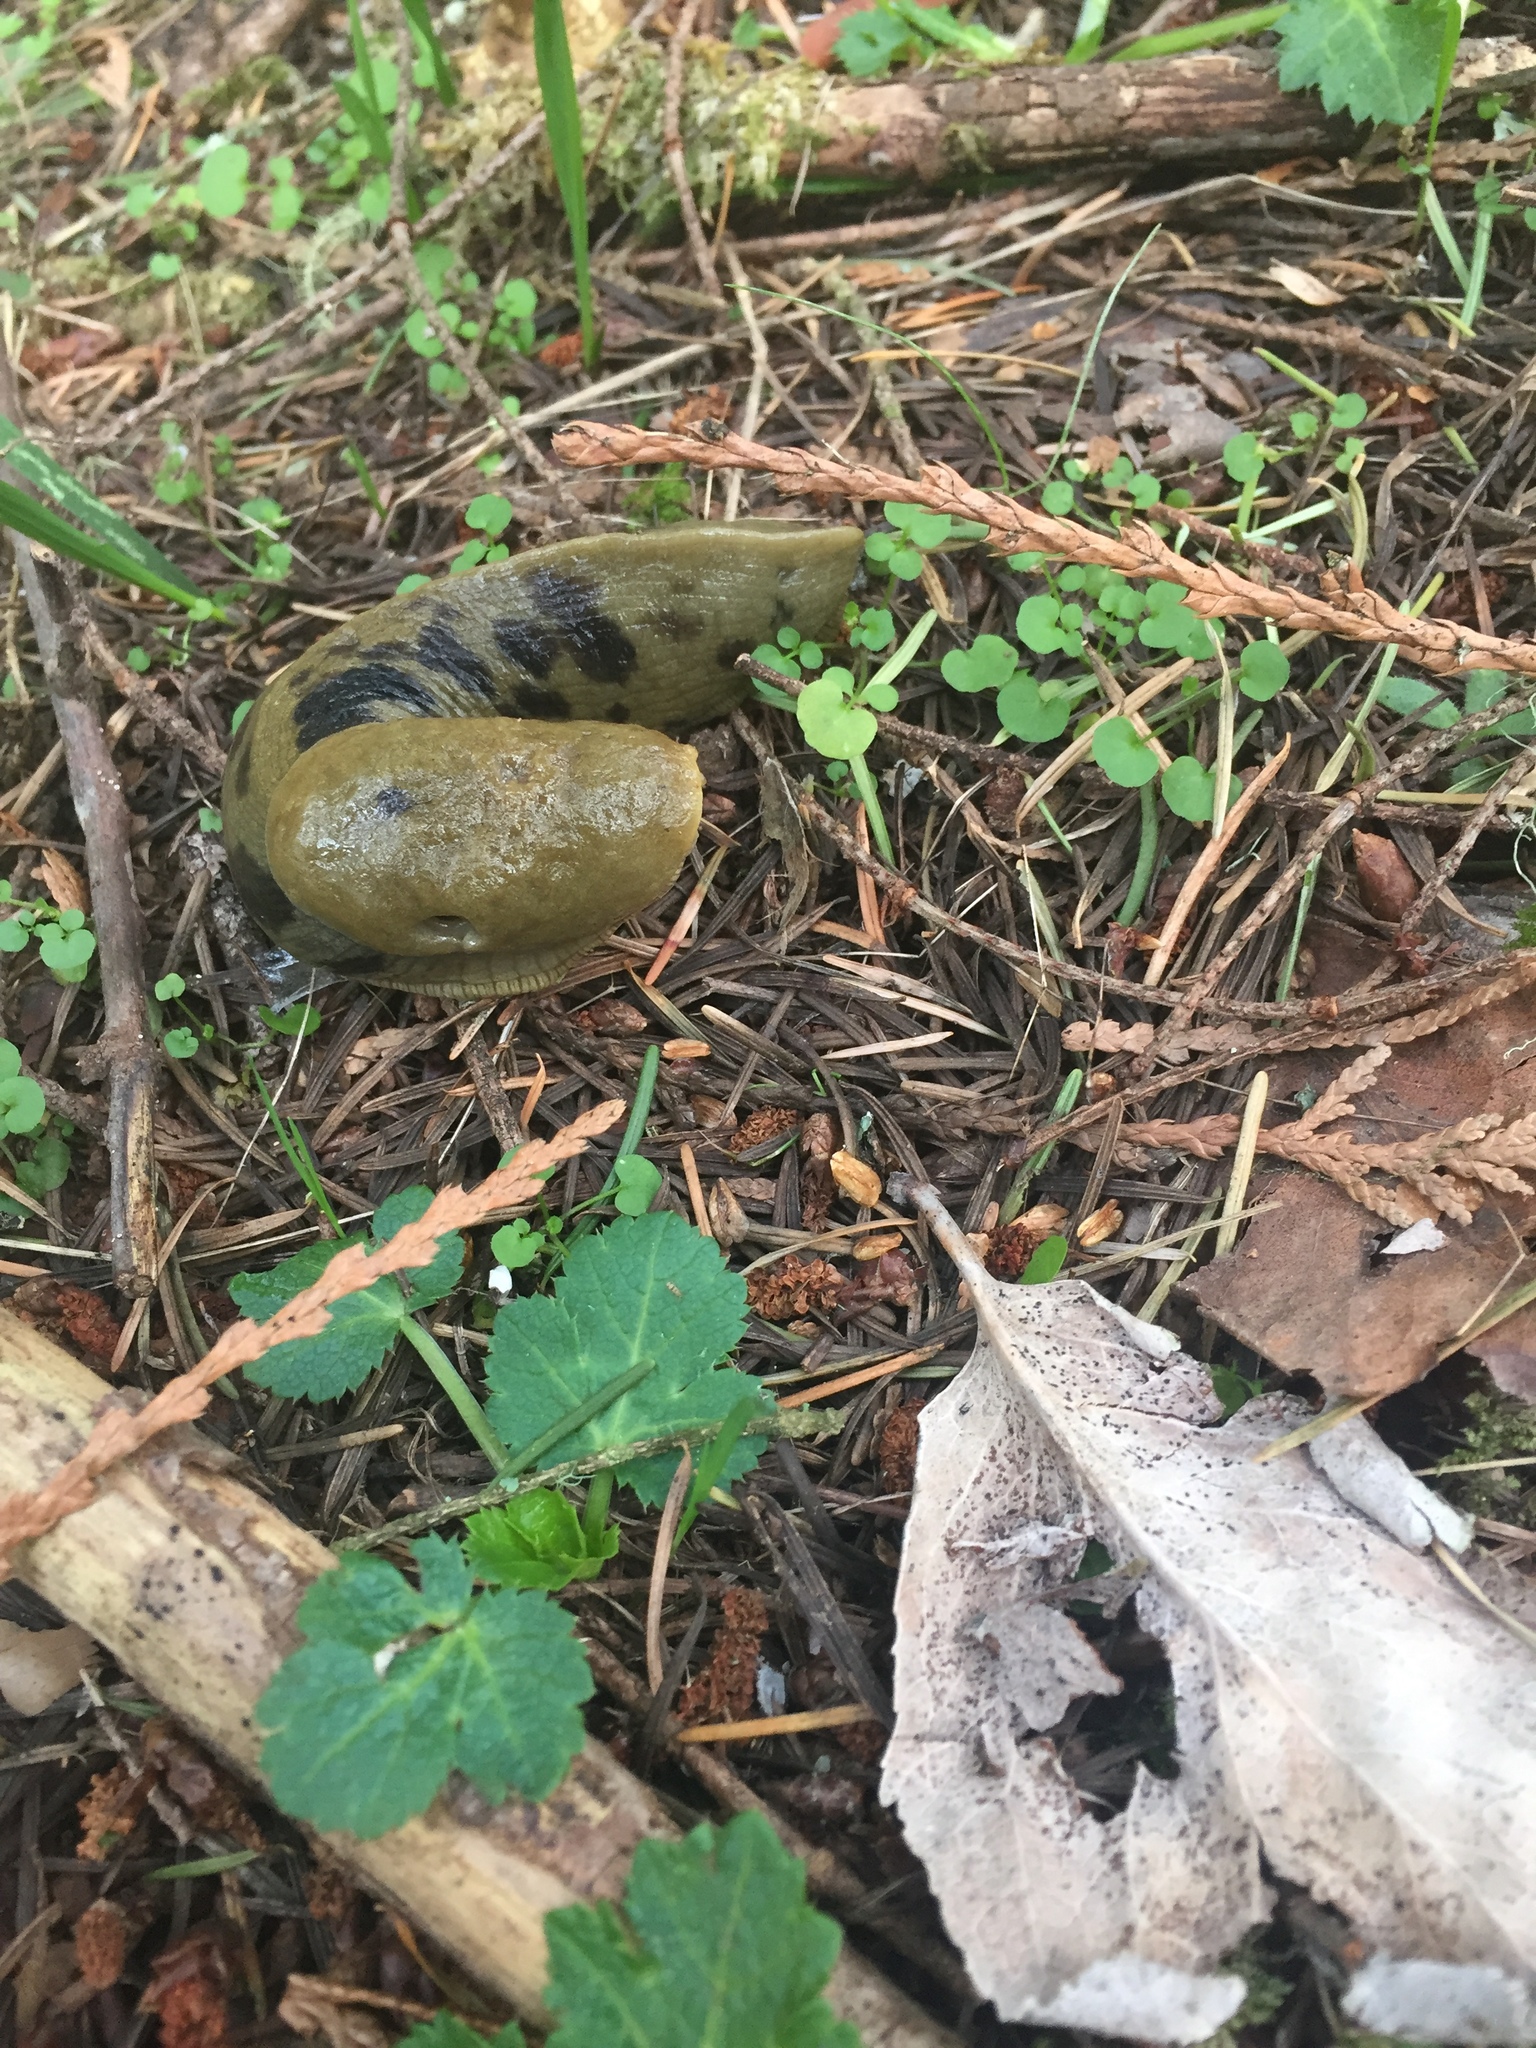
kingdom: Animalia
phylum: Mollusca
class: Gastropoda
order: Stylommatophora
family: Ariolimacidae
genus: Ariolimax
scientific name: Ariolimax columbianus
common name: Pacific banana slug
